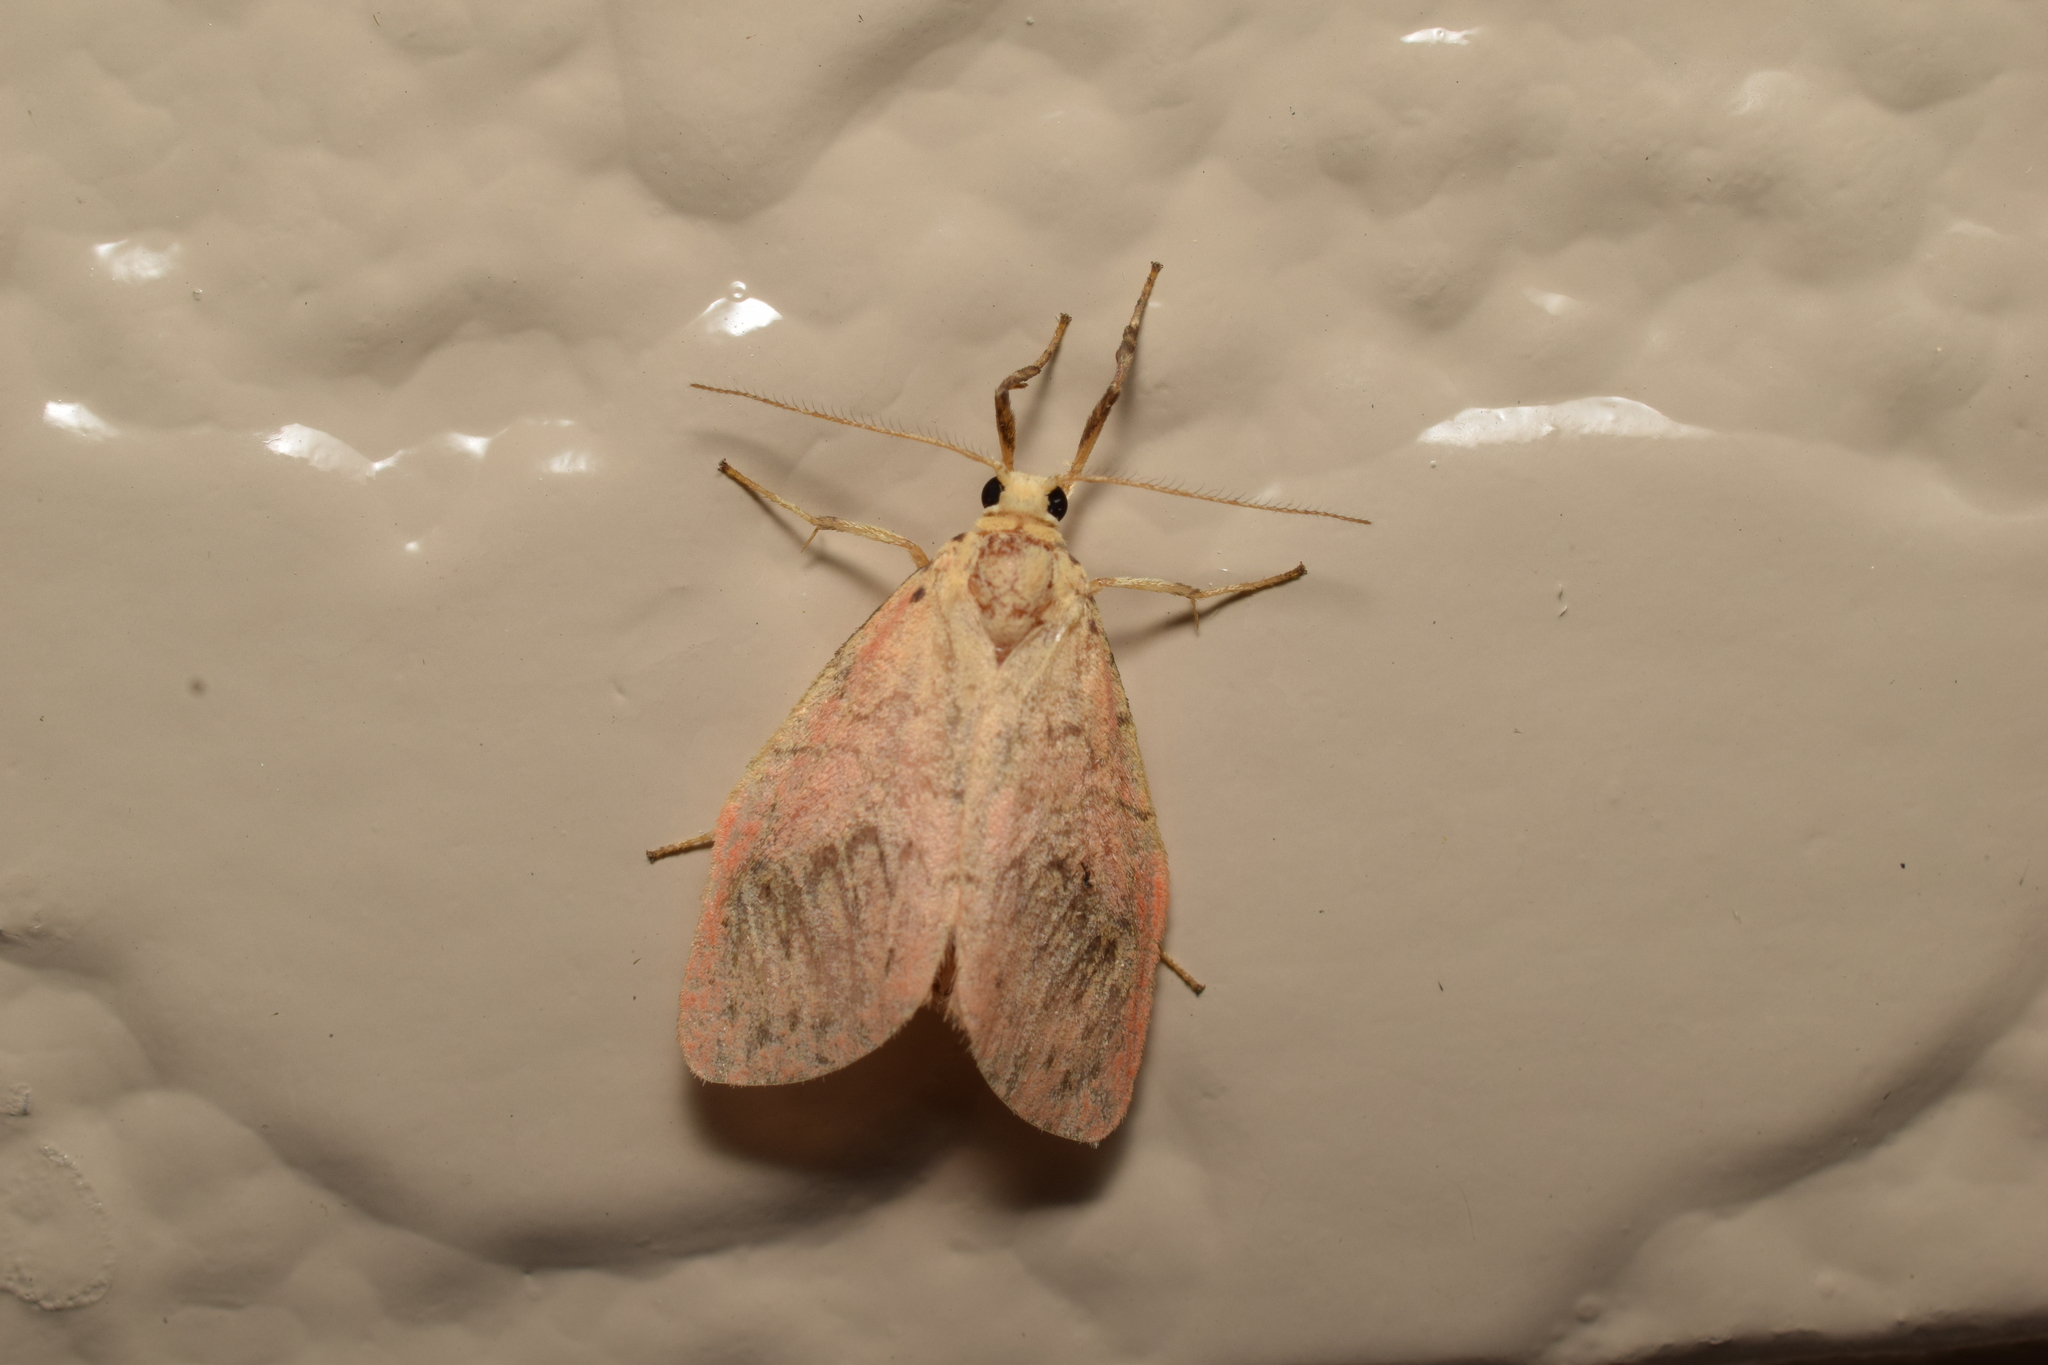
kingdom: Animalia
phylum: Arthropoda
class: Insecta
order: Lepidoptera
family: Erebidae
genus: Miltochrista
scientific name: Miltochrista miniata
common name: Rosy footman
